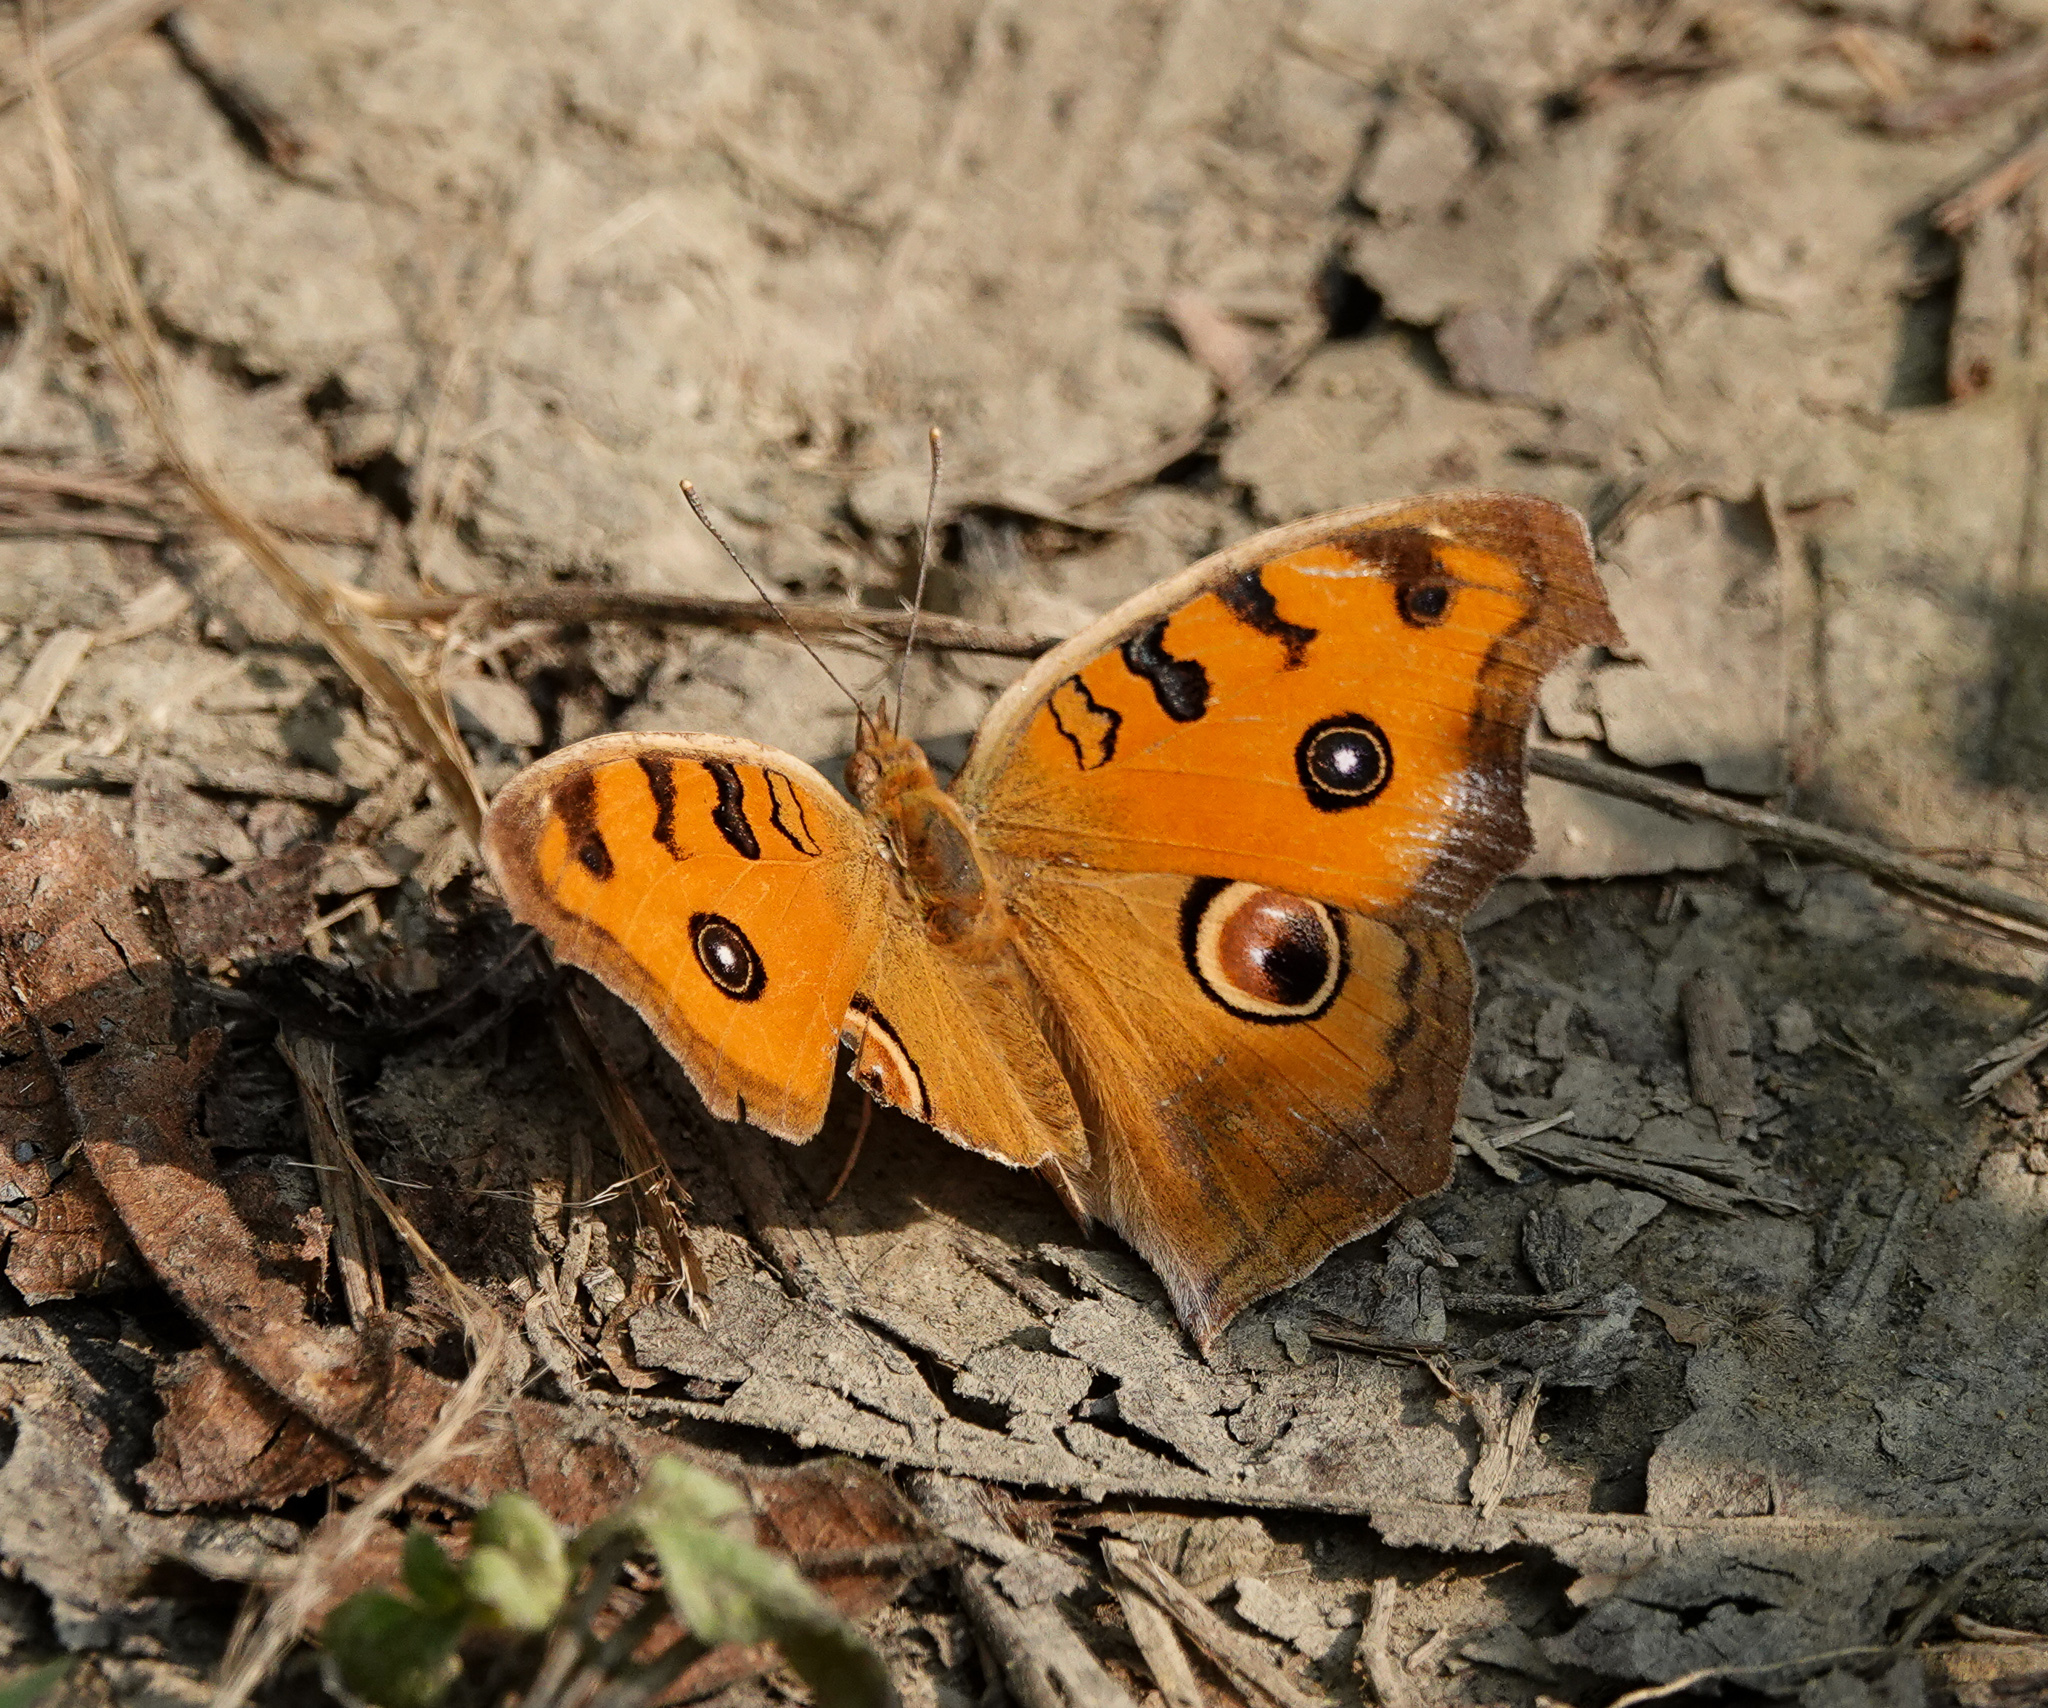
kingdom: Animalia
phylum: Arthropoda
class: Insecta
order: Lepidoptera
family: Nymphalidae
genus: Junonia
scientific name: Junonia almana
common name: Peacock pansy
